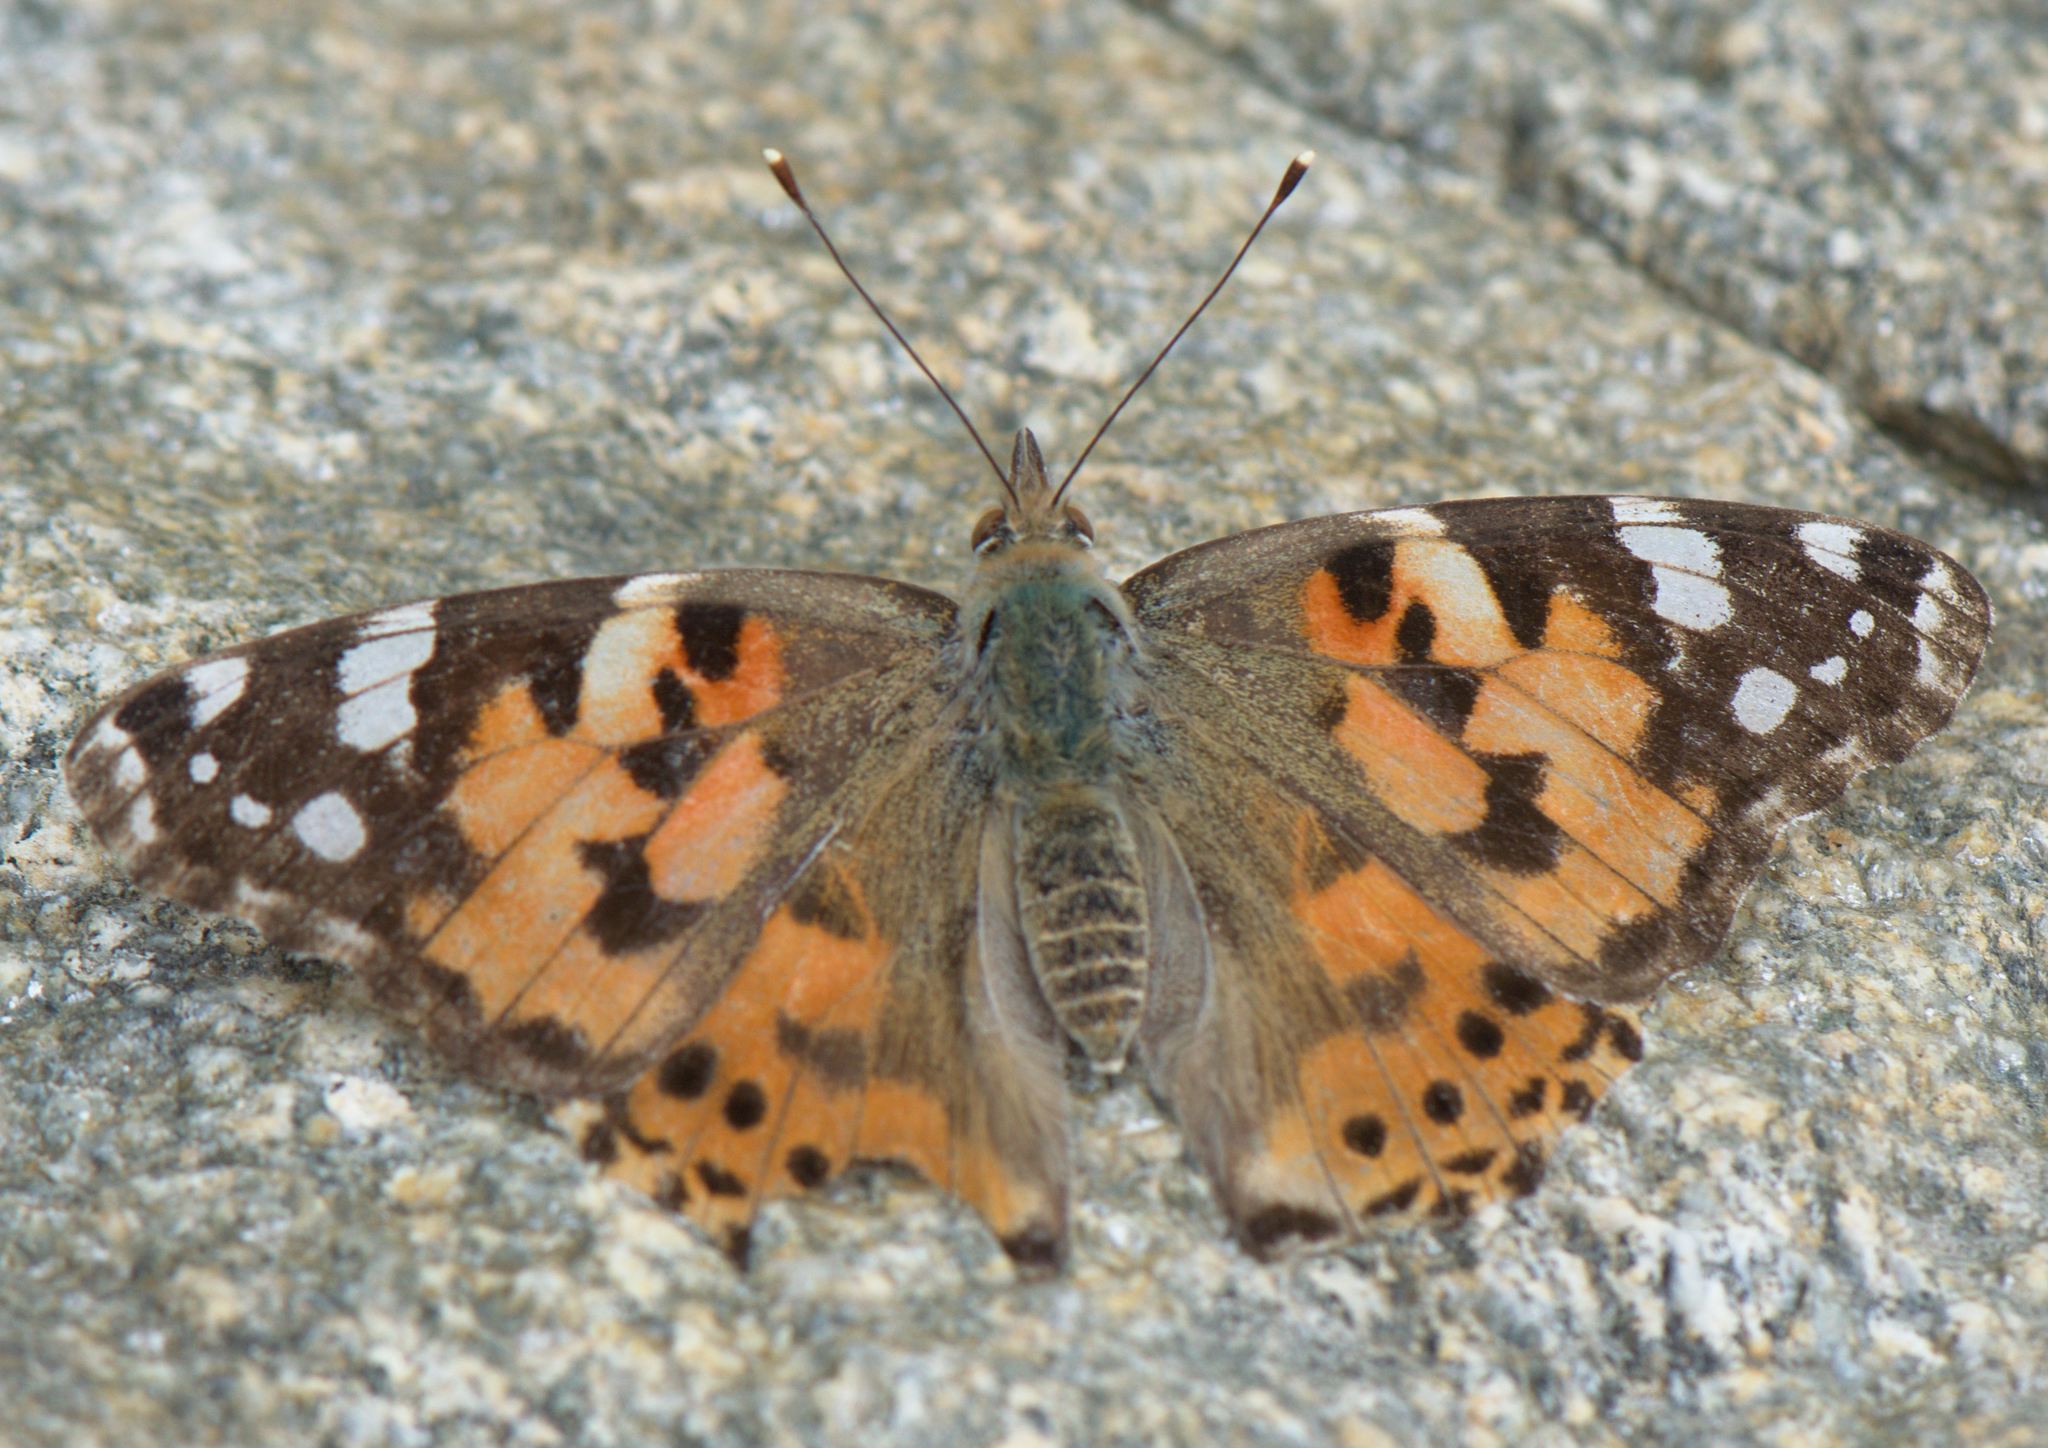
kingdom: Animalia
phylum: Arthropoda
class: Insecta
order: Lepidoptera
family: Nymphalidae
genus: Vanessa
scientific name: Vanessa cardui
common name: Painted lady
